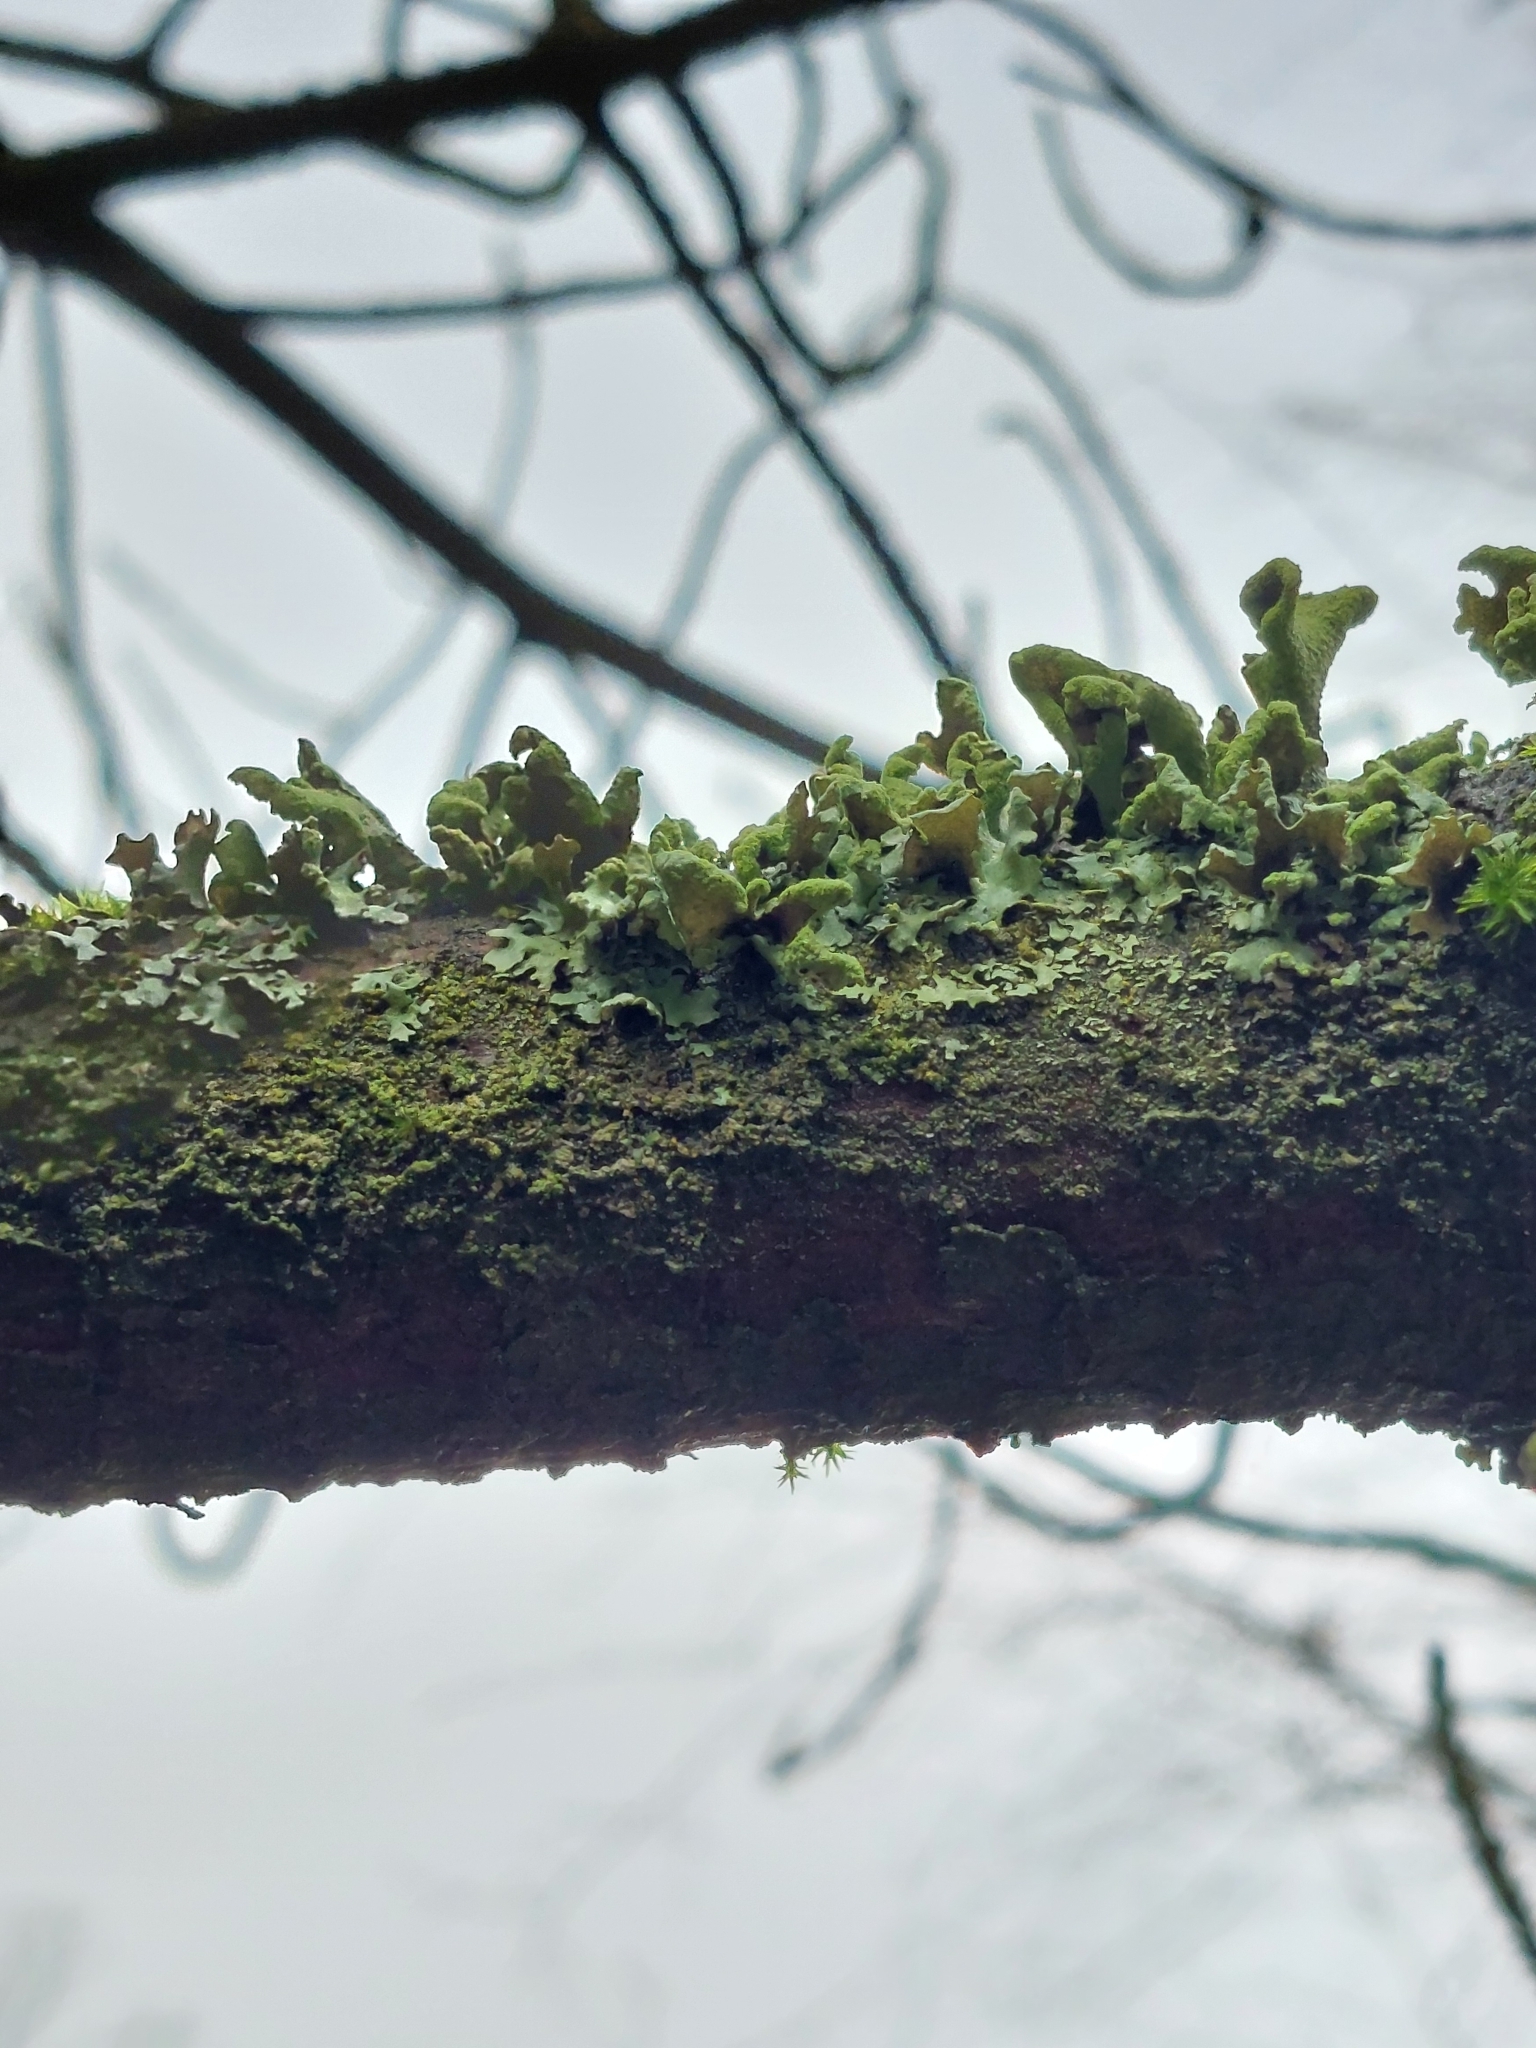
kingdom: Fungi
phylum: Ascomycota
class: Lecanoromycetes
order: Lecanorales
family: Parmeliaceae
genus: Hypotrachyna
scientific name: Hypotrachyna revoluta
